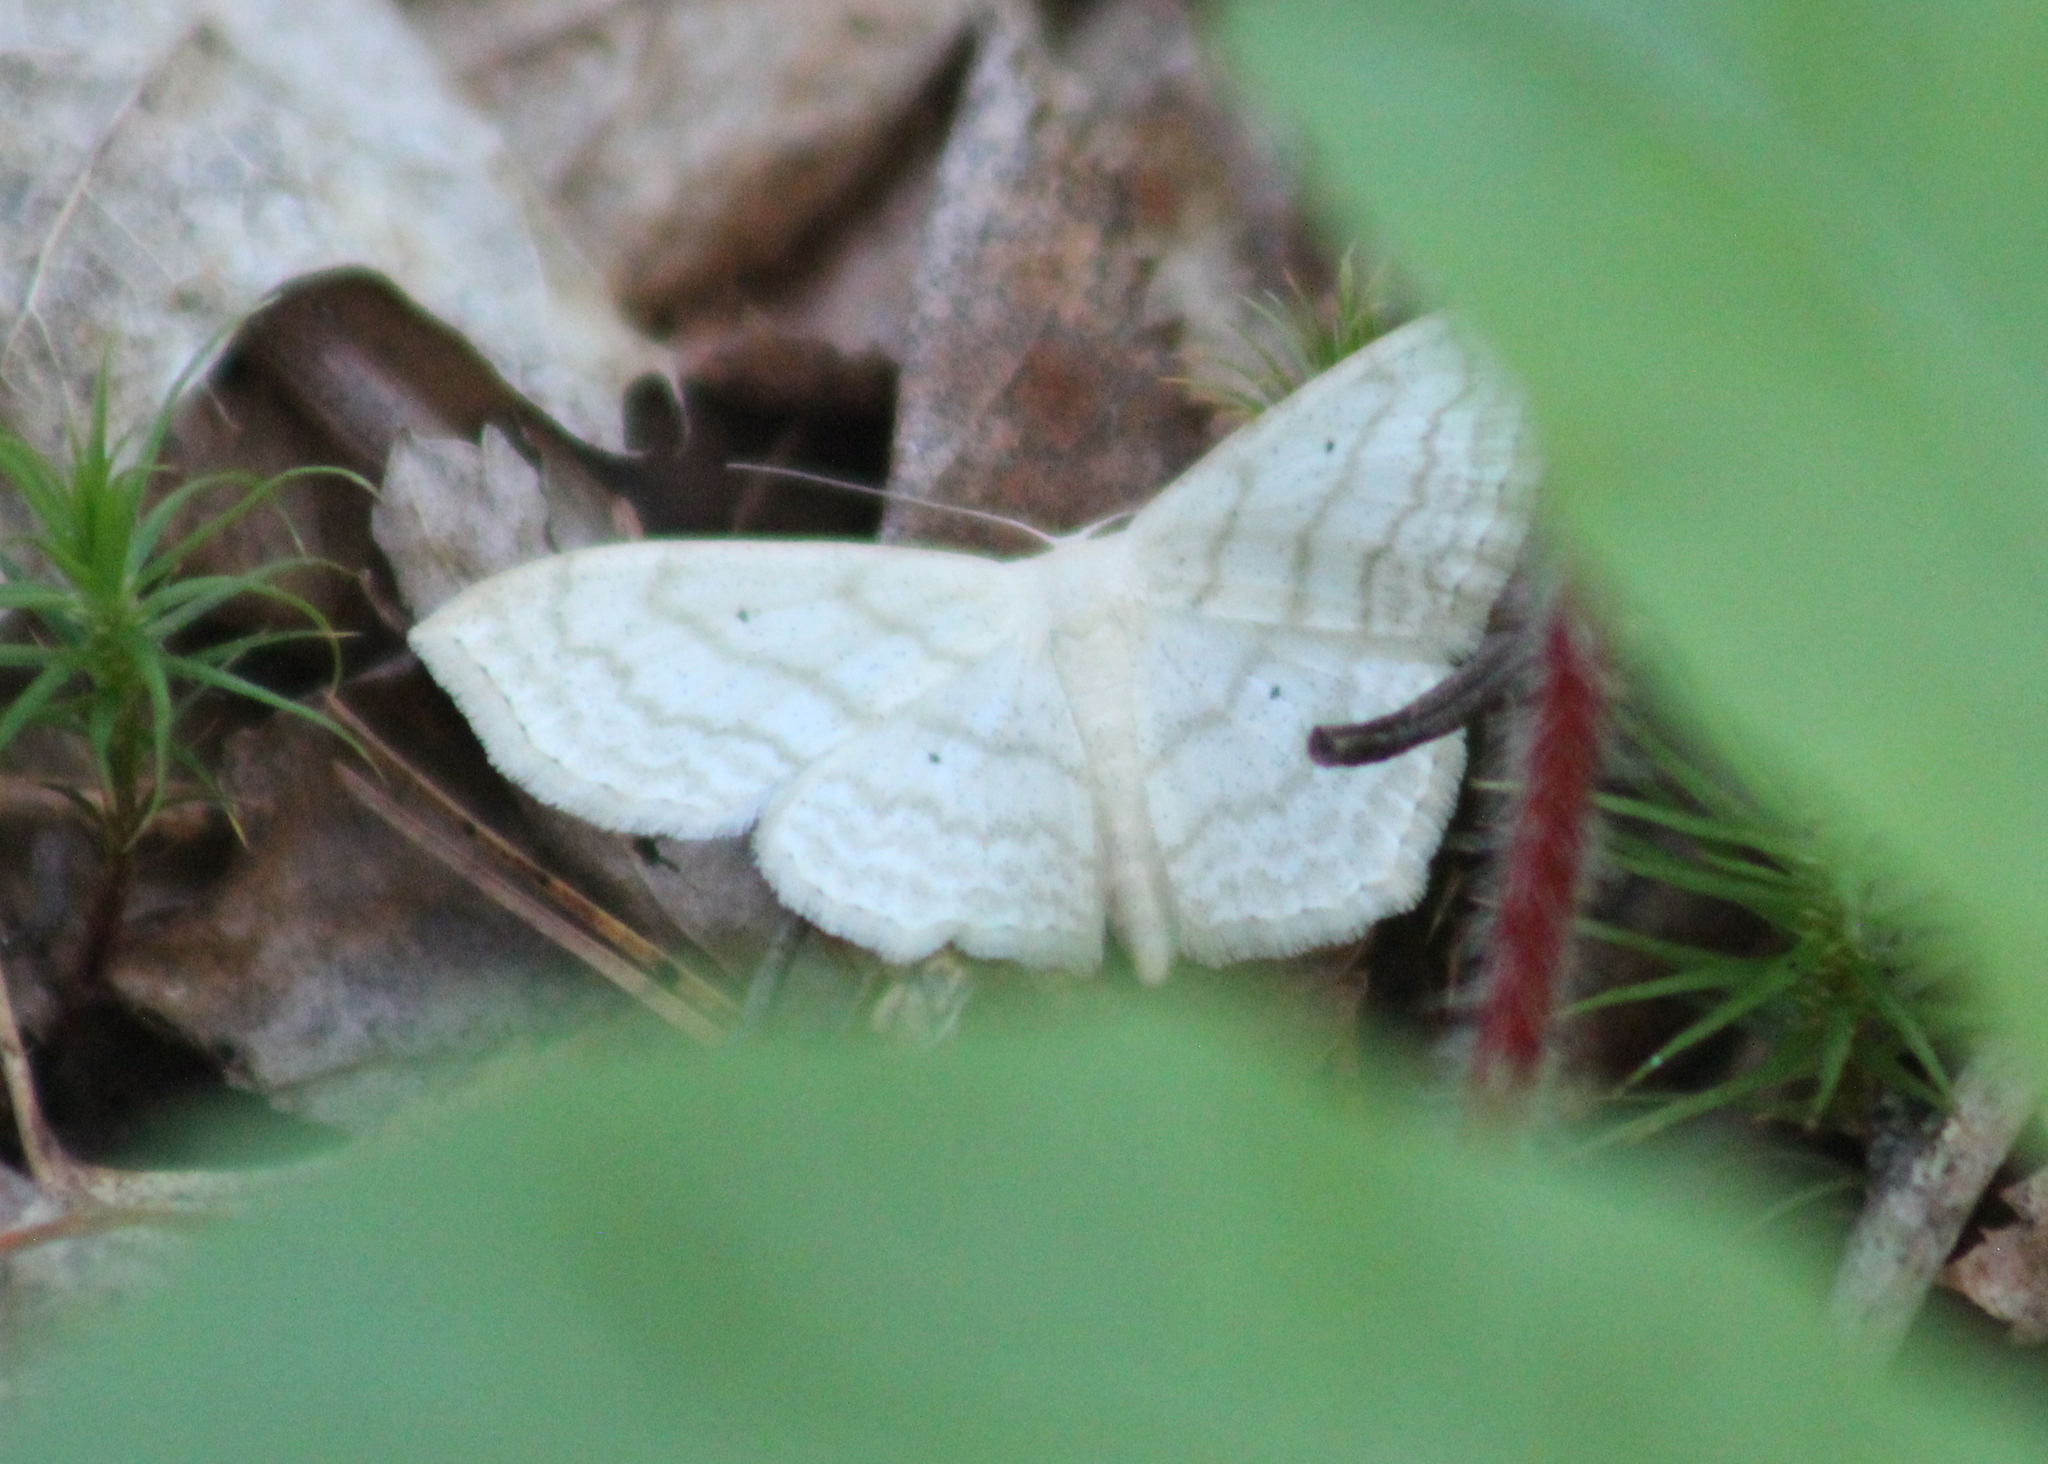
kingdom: Animalia
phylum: Arthropoda
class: Insecta
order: Lepidoptera
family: Geometridae
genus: Scopula
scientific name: Scopula limboundata
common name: Large lace border
